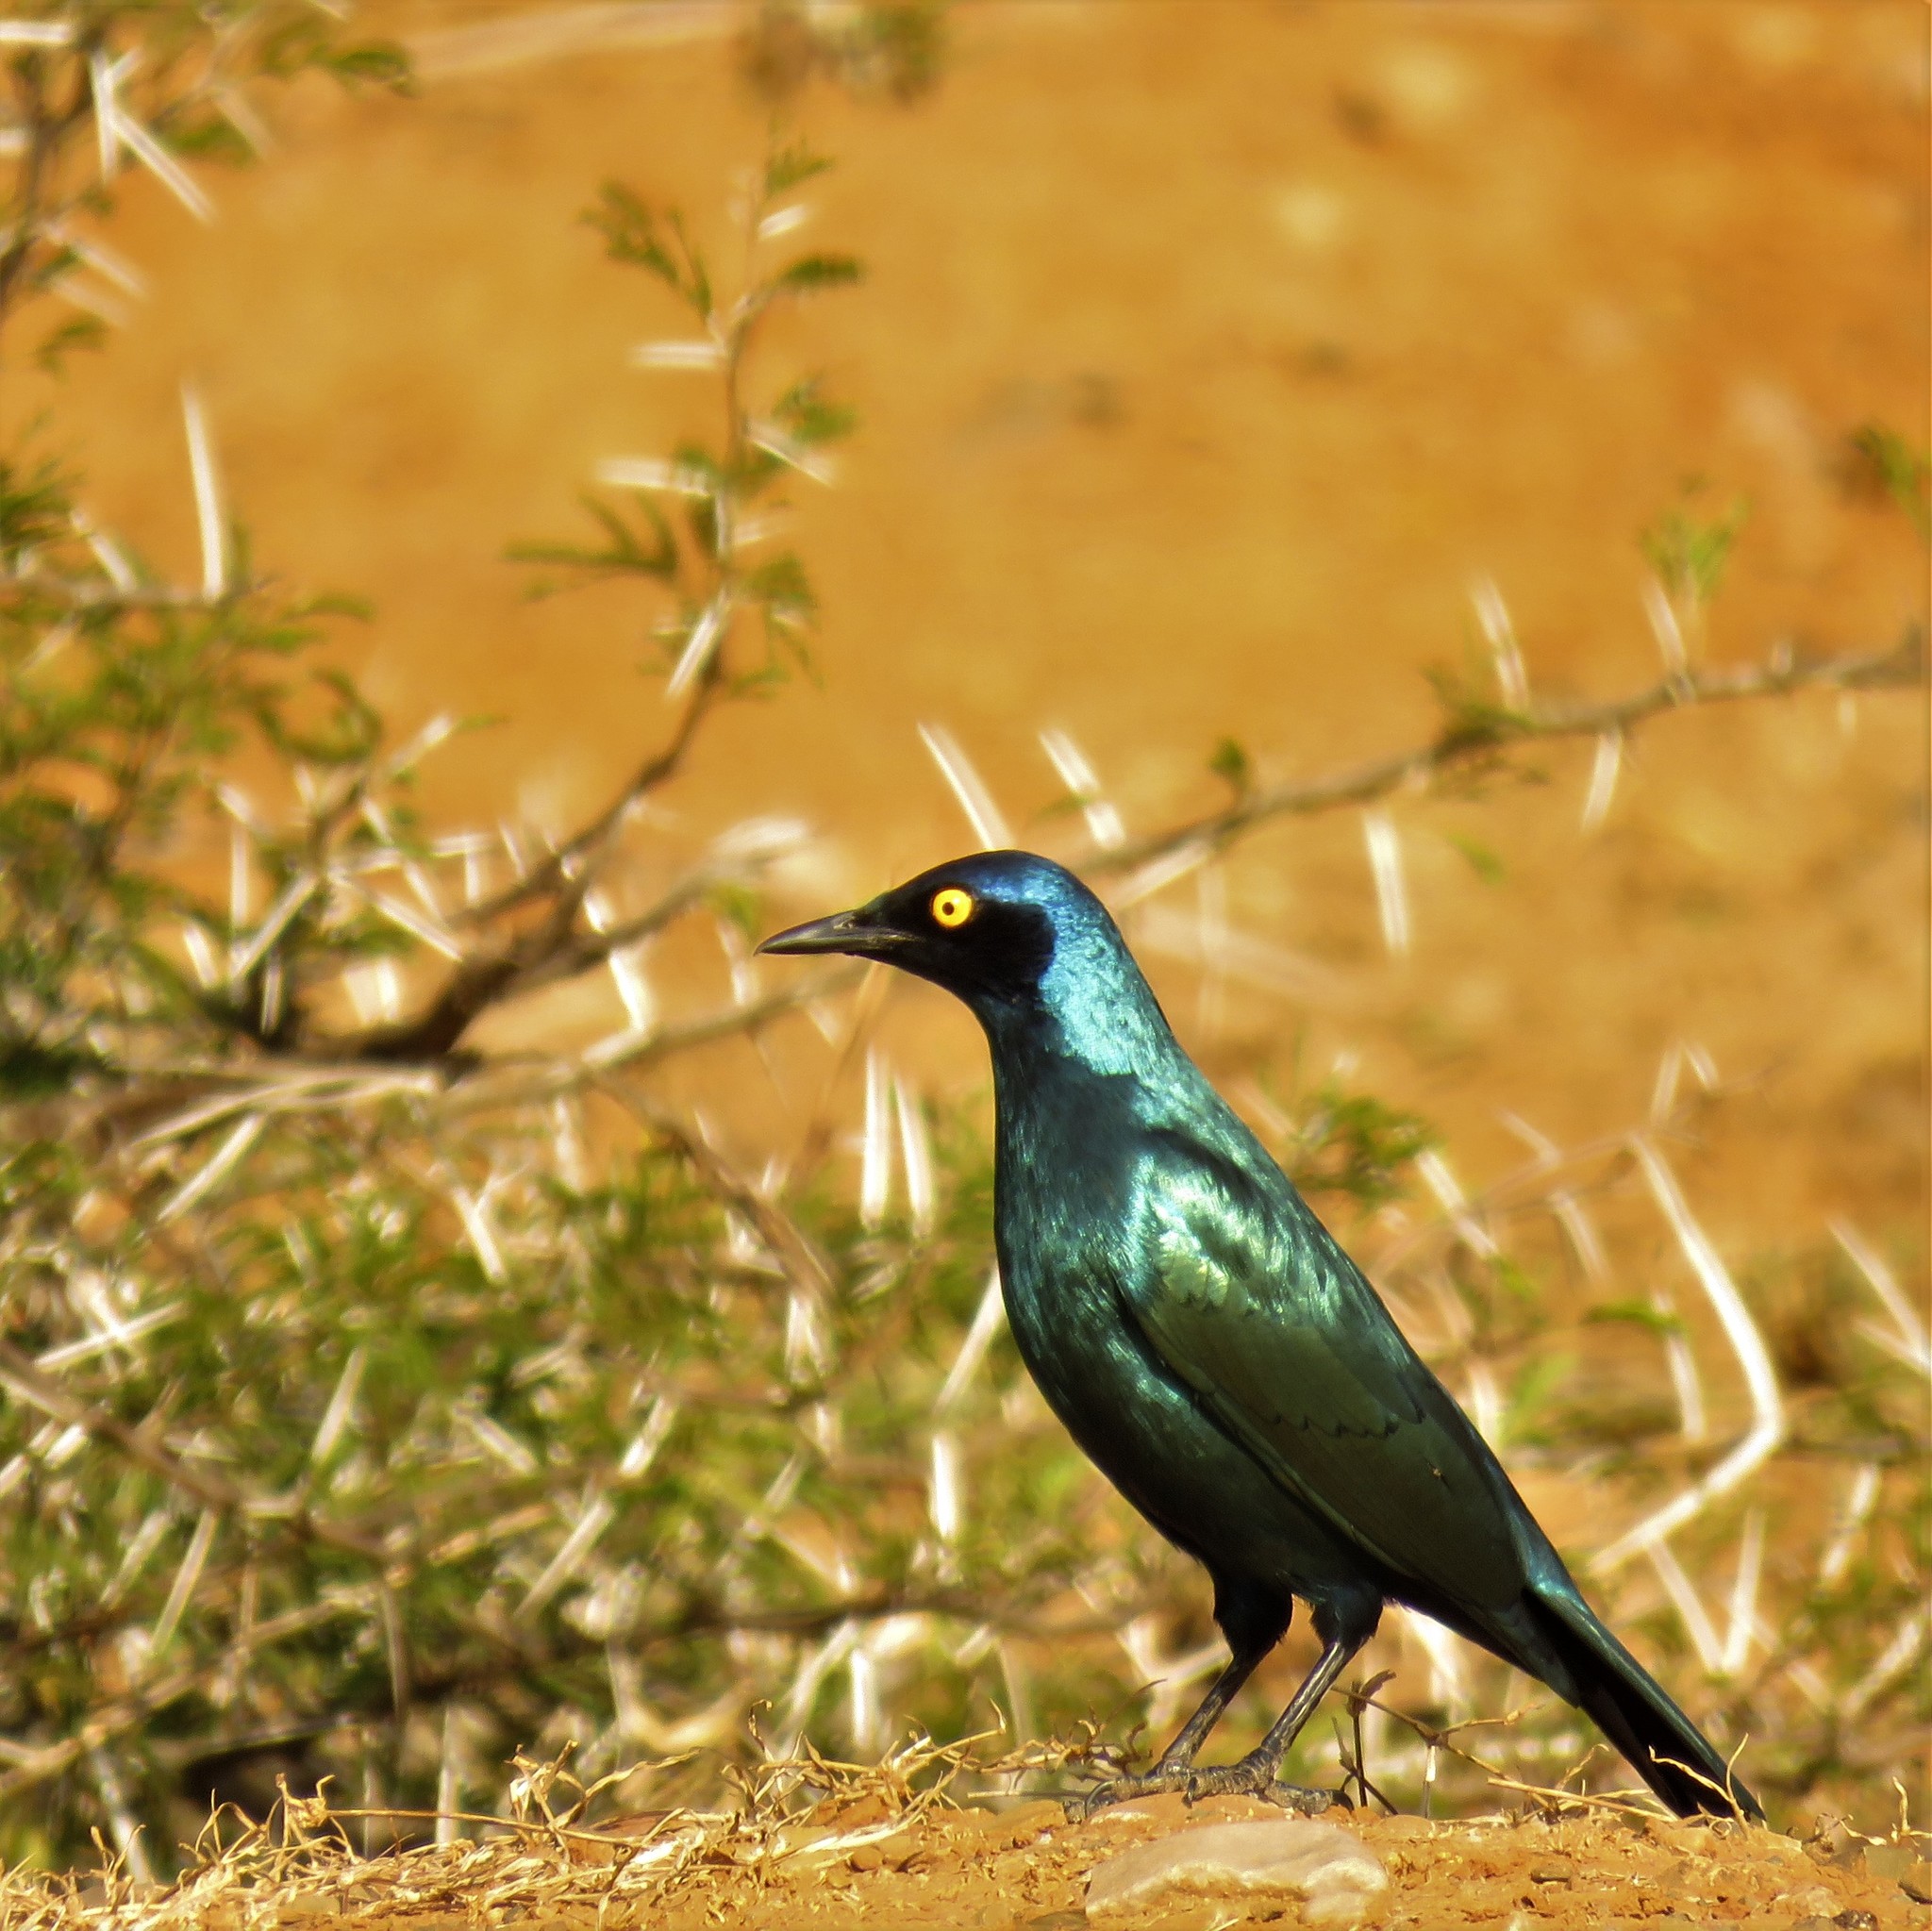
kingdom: Animalia
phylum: Chordata
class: Aves
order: Passeriformes
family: Sturnidae
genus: Lamprotornis
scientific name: Lamprotornis nitens
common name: Cape starling
